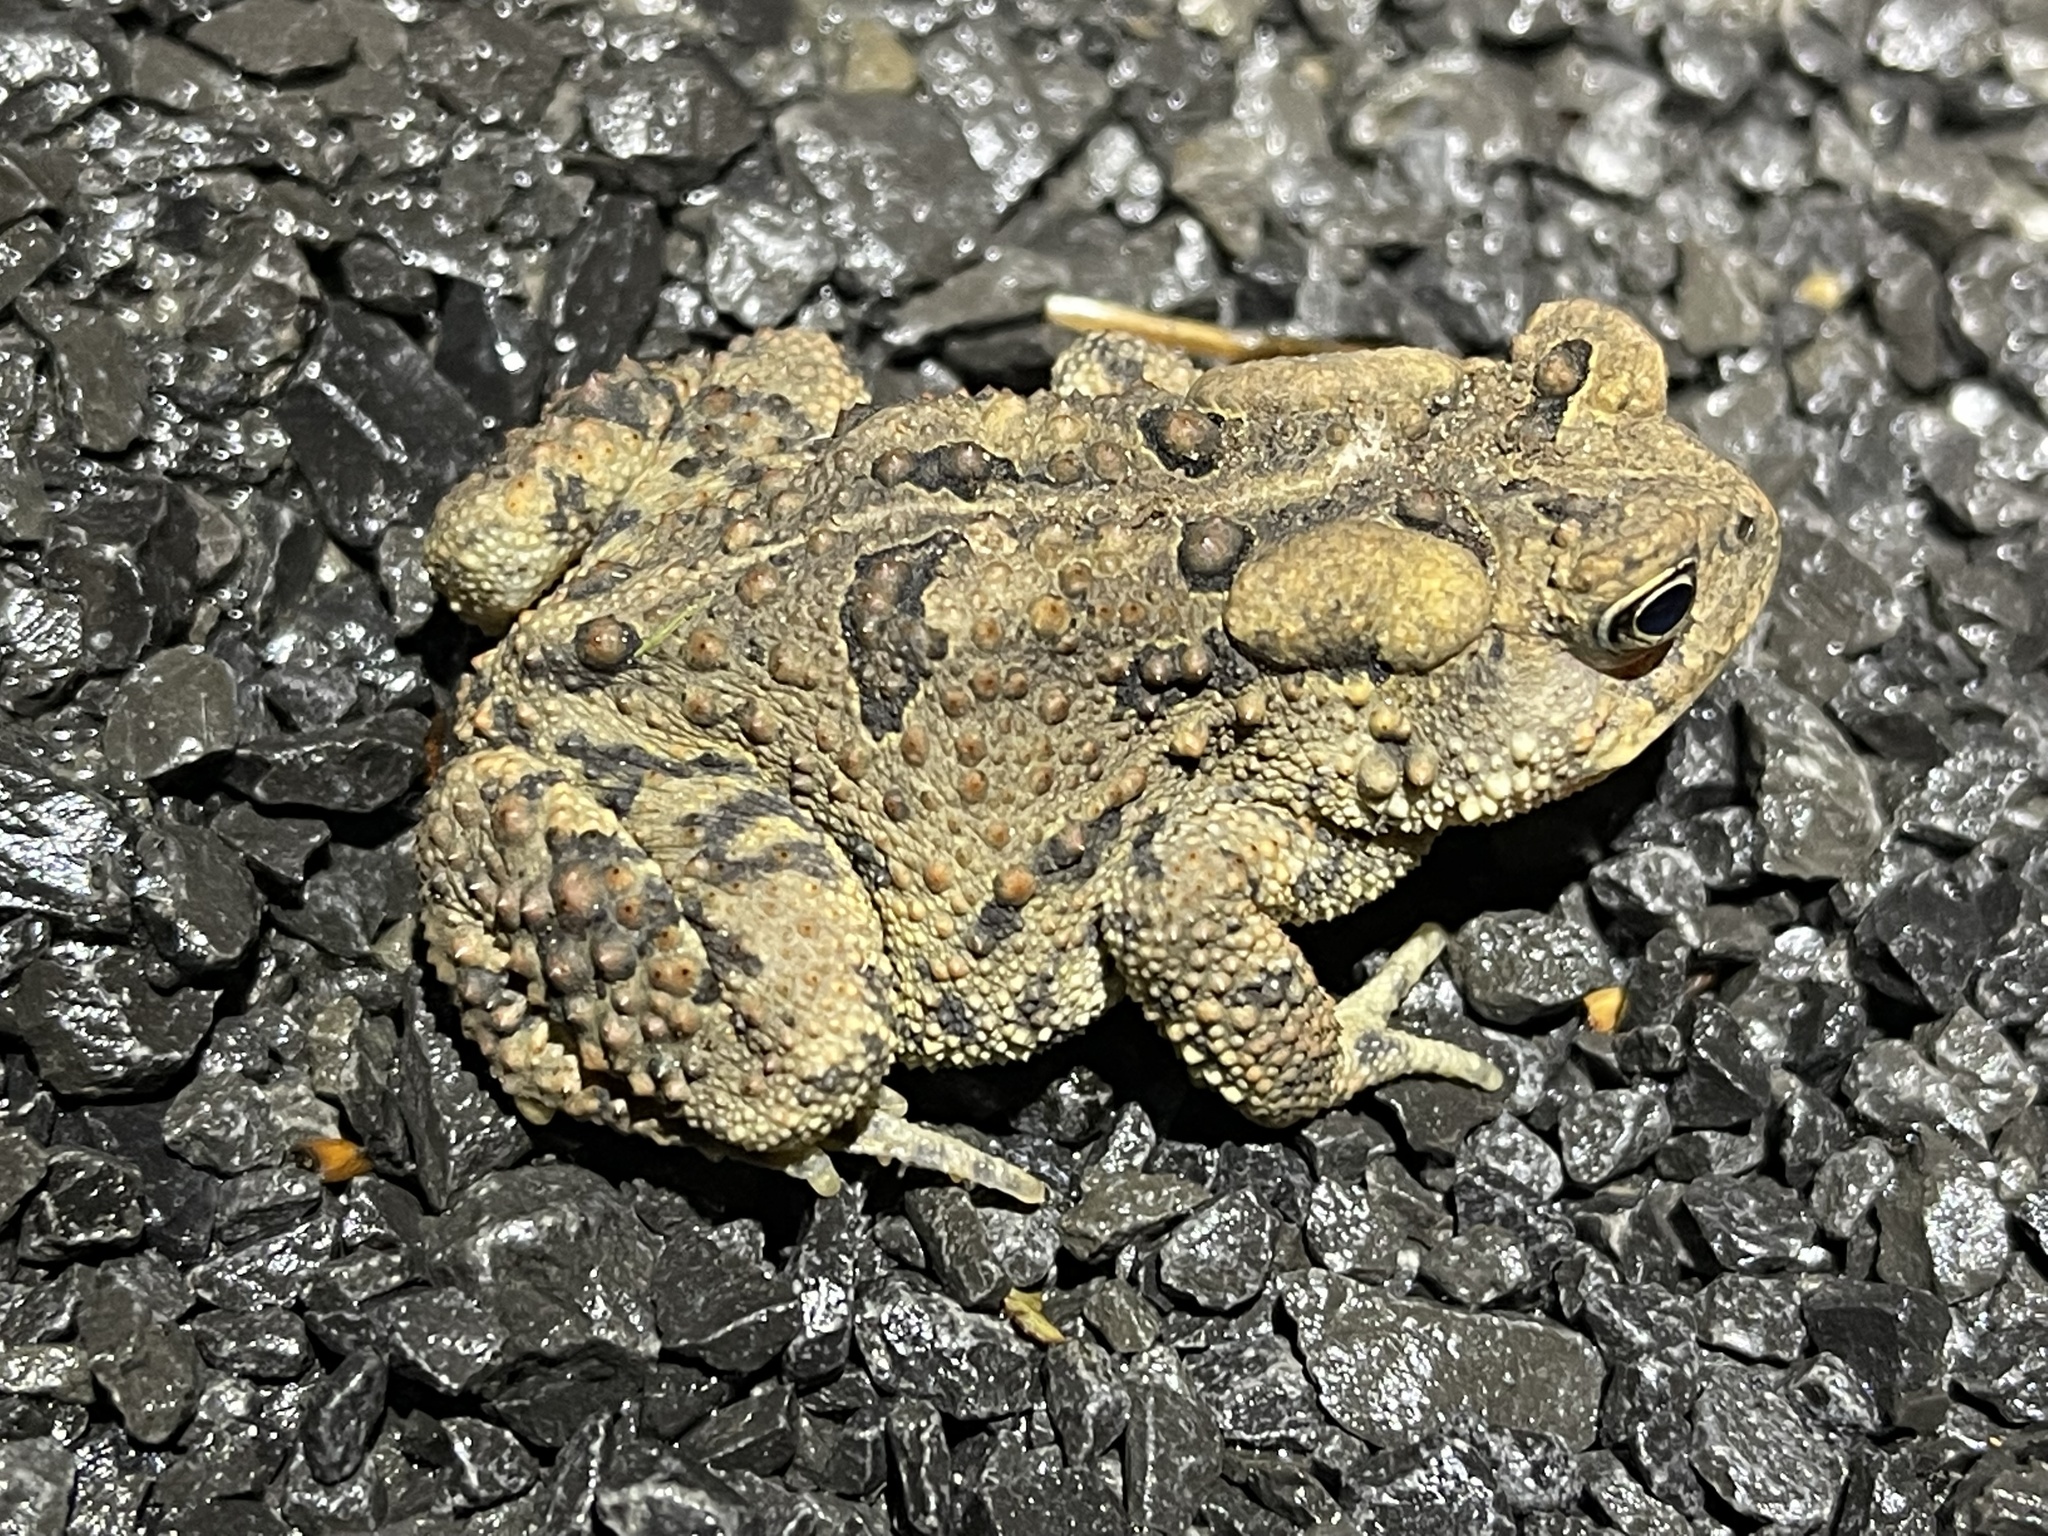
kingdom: Animalia
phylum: Chordata
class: Amphibia
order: Anura
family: Bufonidae
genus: Anaxyrus
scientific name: Anaxyrus americanus
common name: American toad
